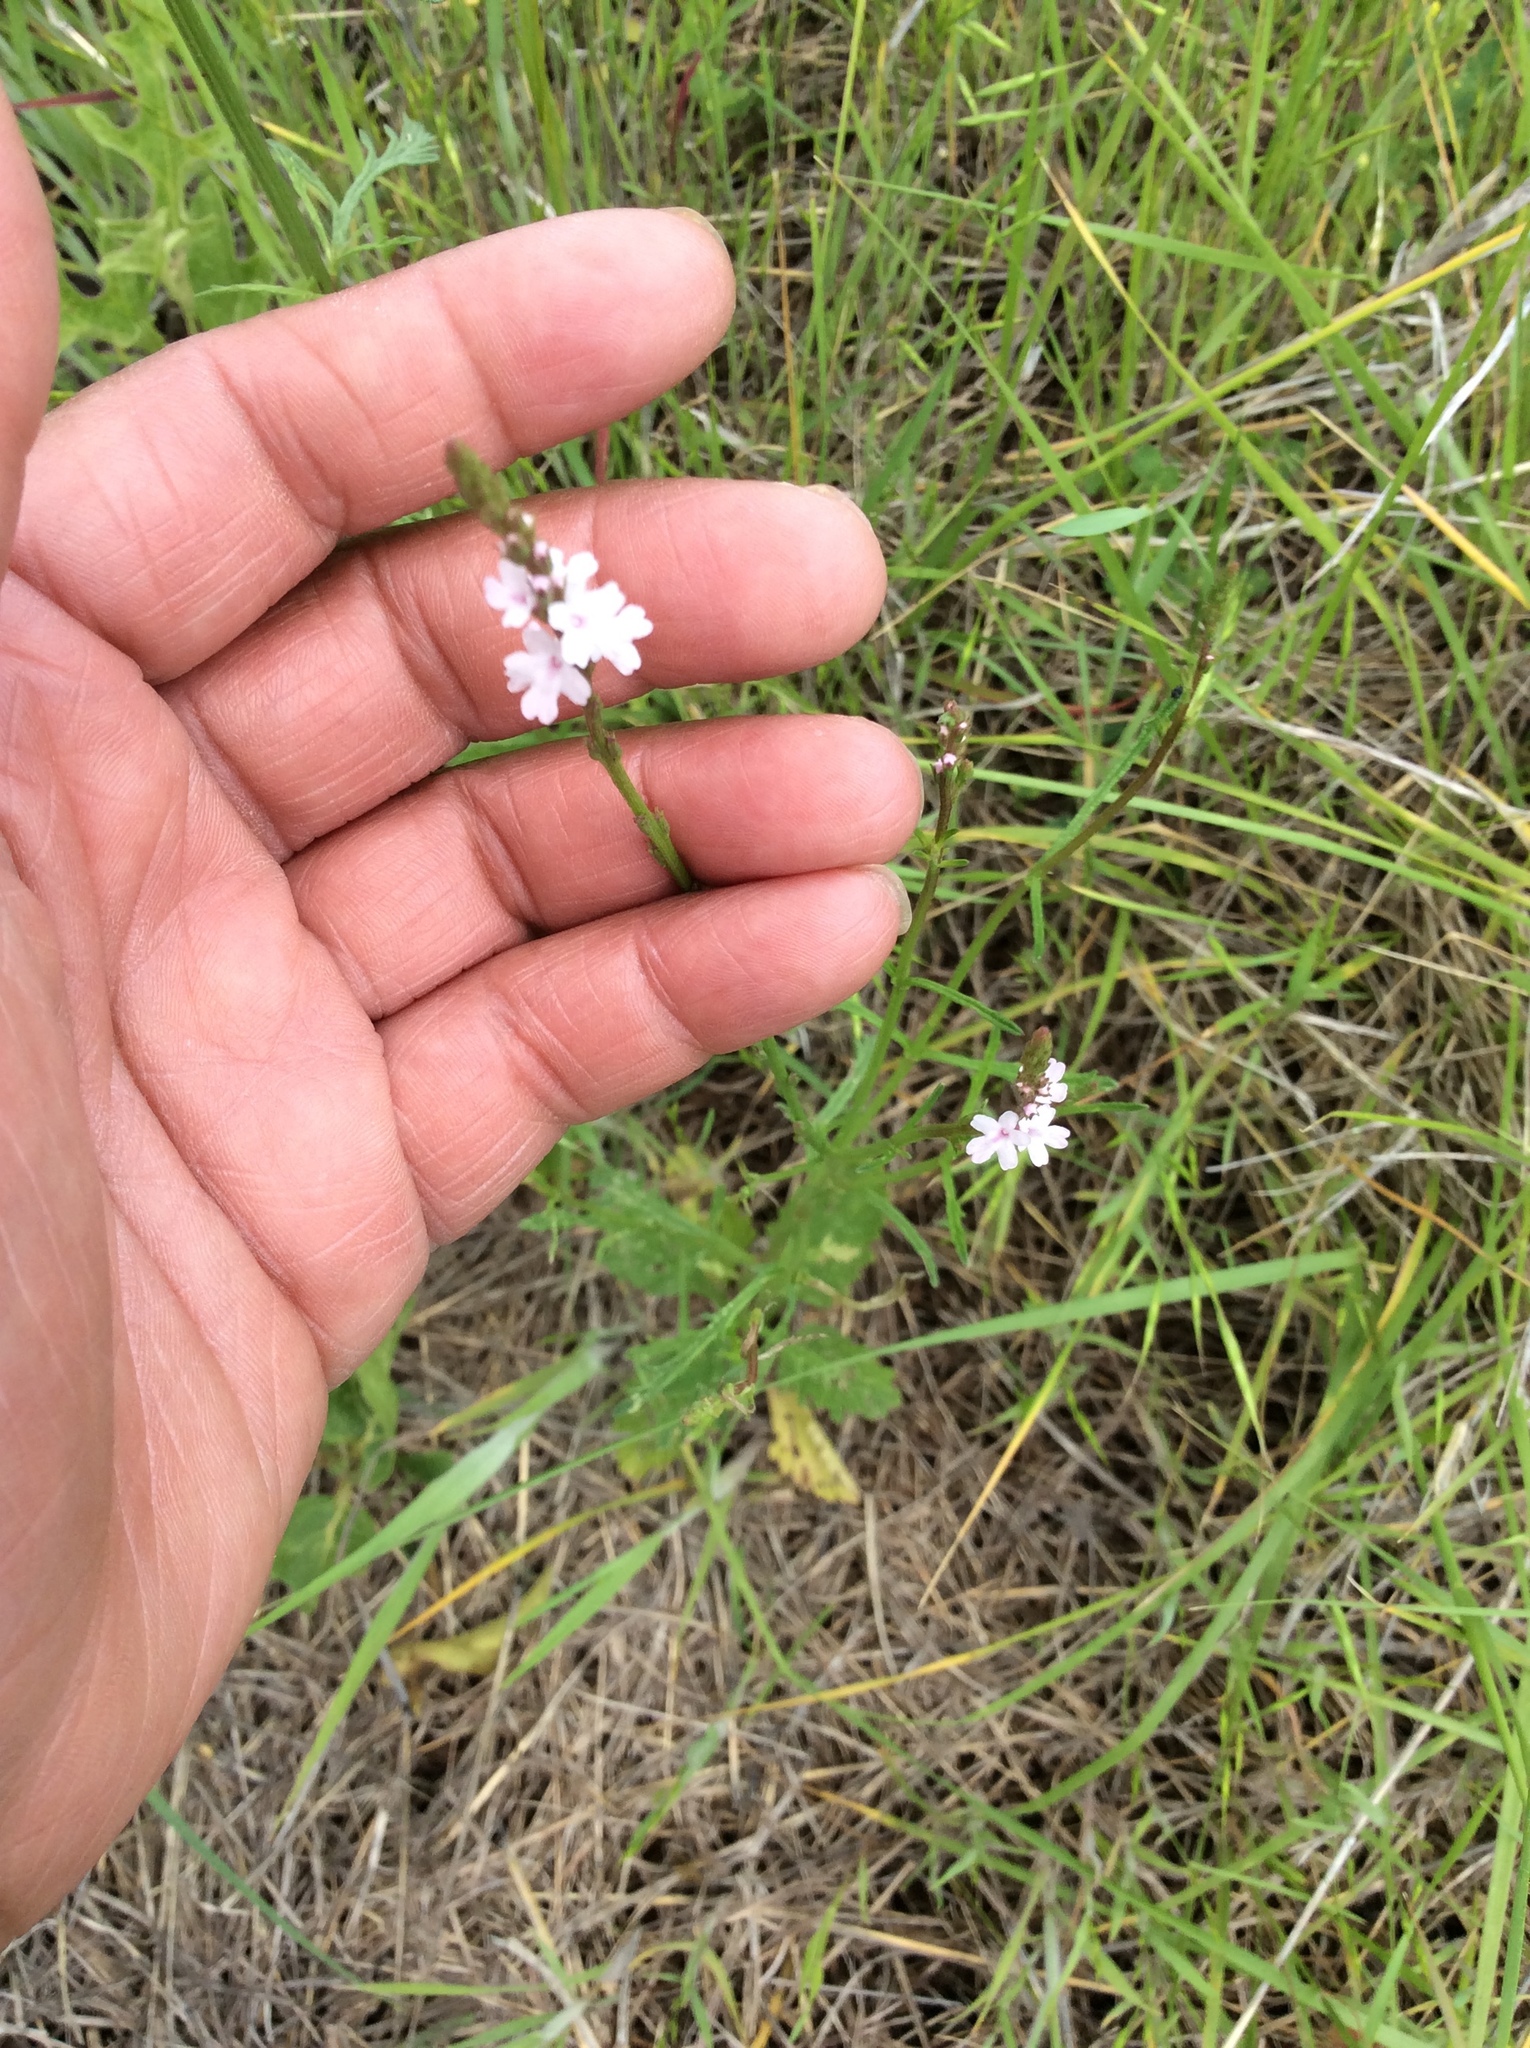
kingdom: Plantae
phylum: Tracheophyta
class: Magnoliopsida
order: Lamiales
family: Verbenaceae
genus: Verbena
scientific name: Verbena halei
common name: Texas vervain
